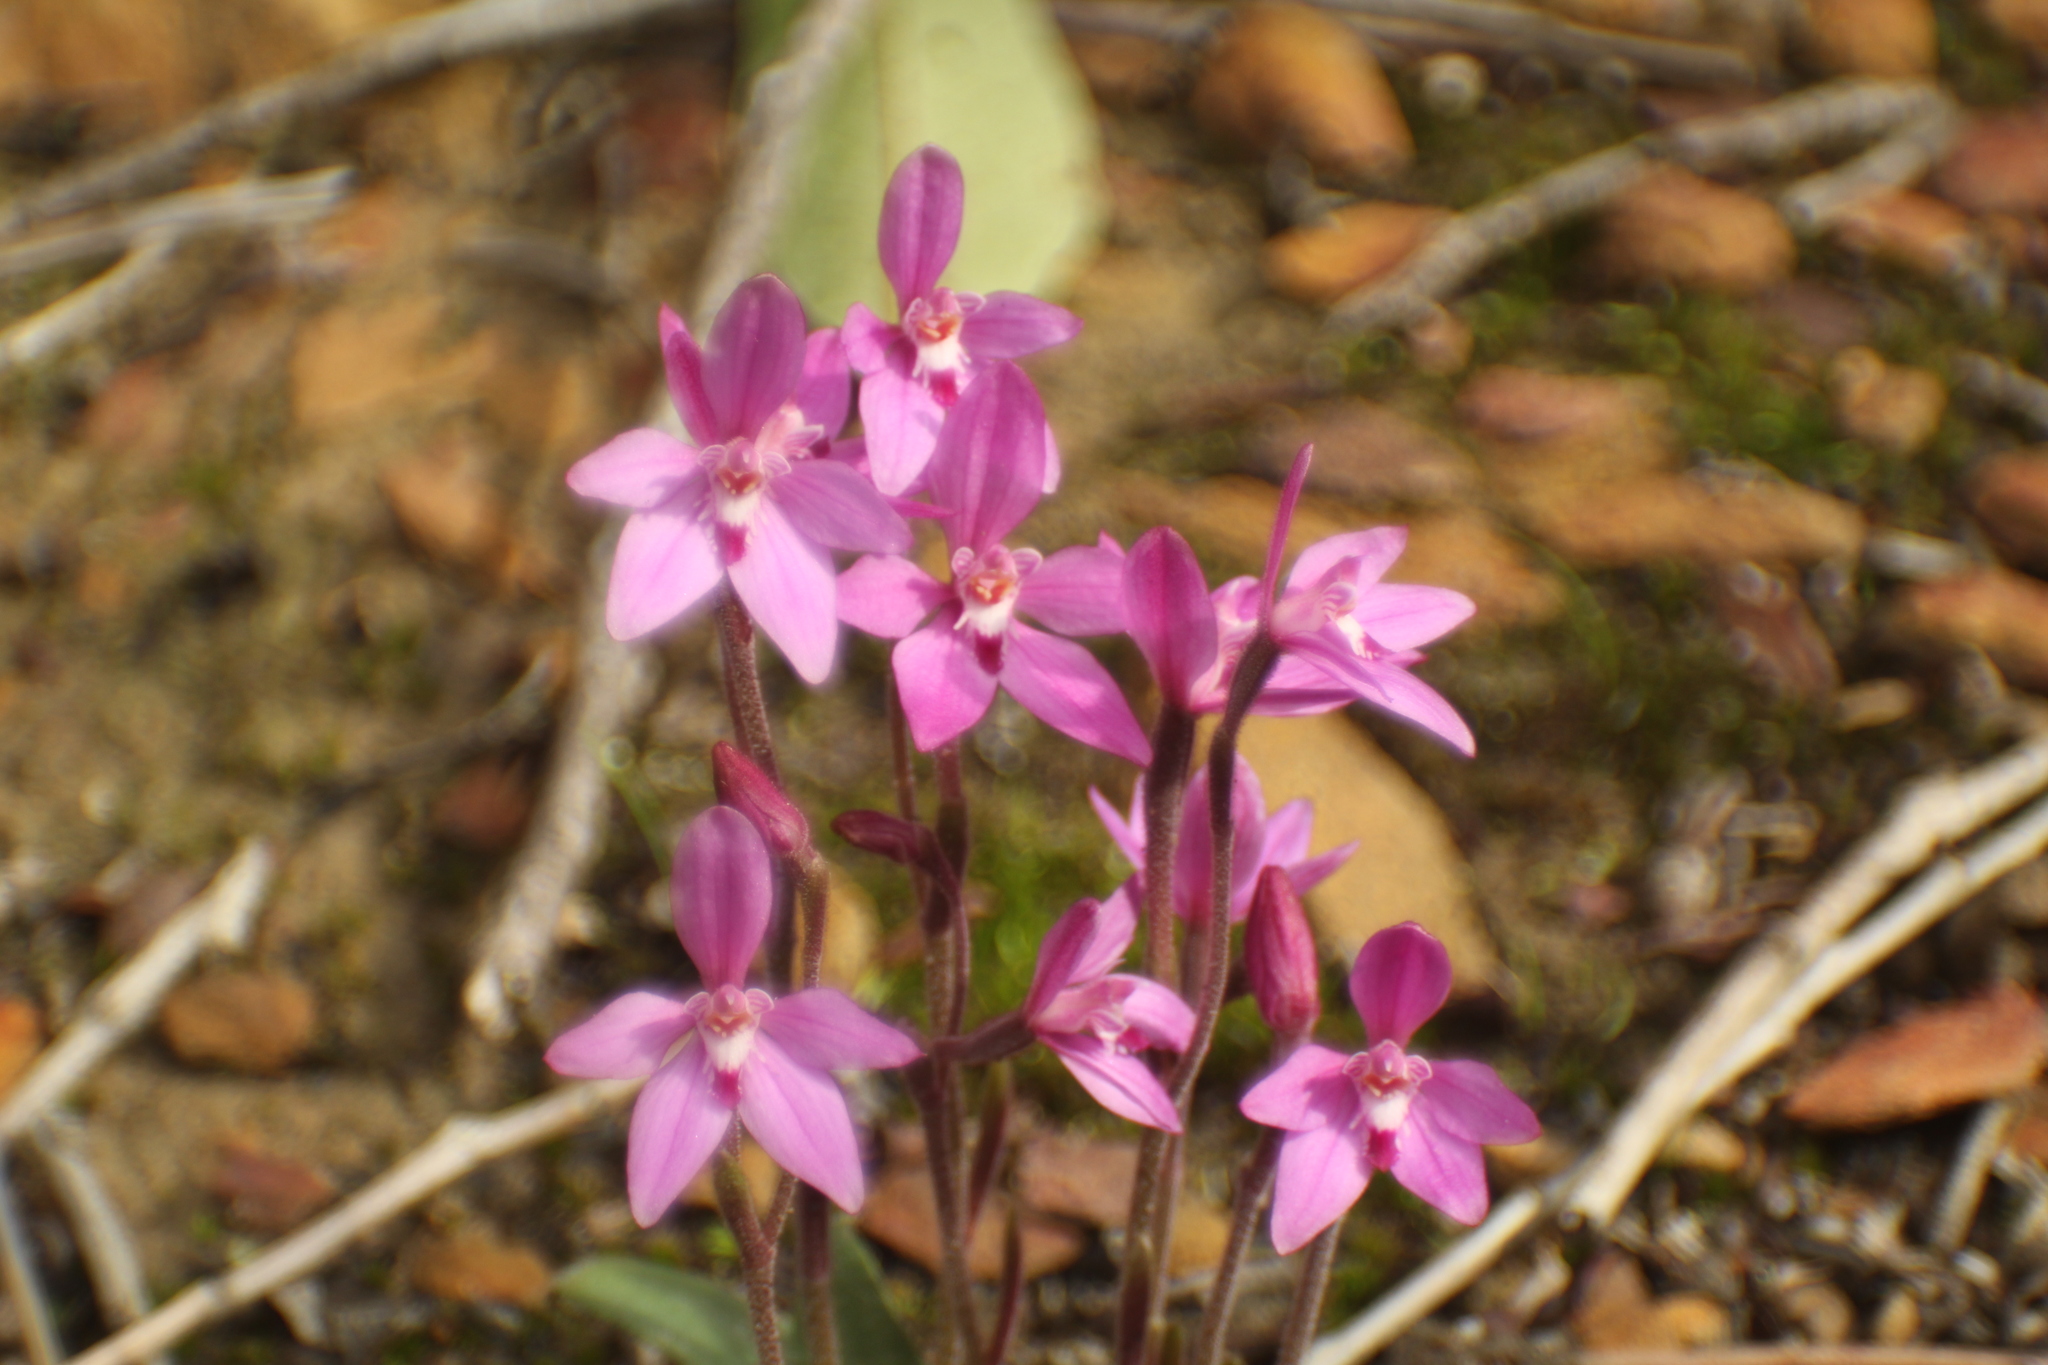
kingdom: Plantae
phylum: Tracheophyta
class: Liliopsida
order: Asparagales
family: Orchidaceae
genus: Caladenia
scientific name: Caladenia reptans
